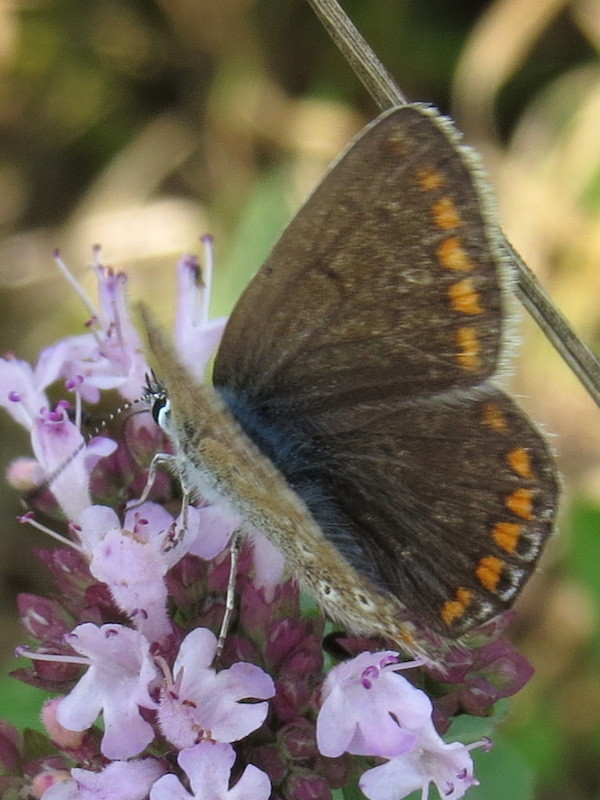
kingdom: Animalia
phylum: Arthropoda
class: Insecta
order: Lepidoptera
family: Lycaenidae
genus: Polyommatus
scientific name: Polyommatus icarus
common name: Common blue
